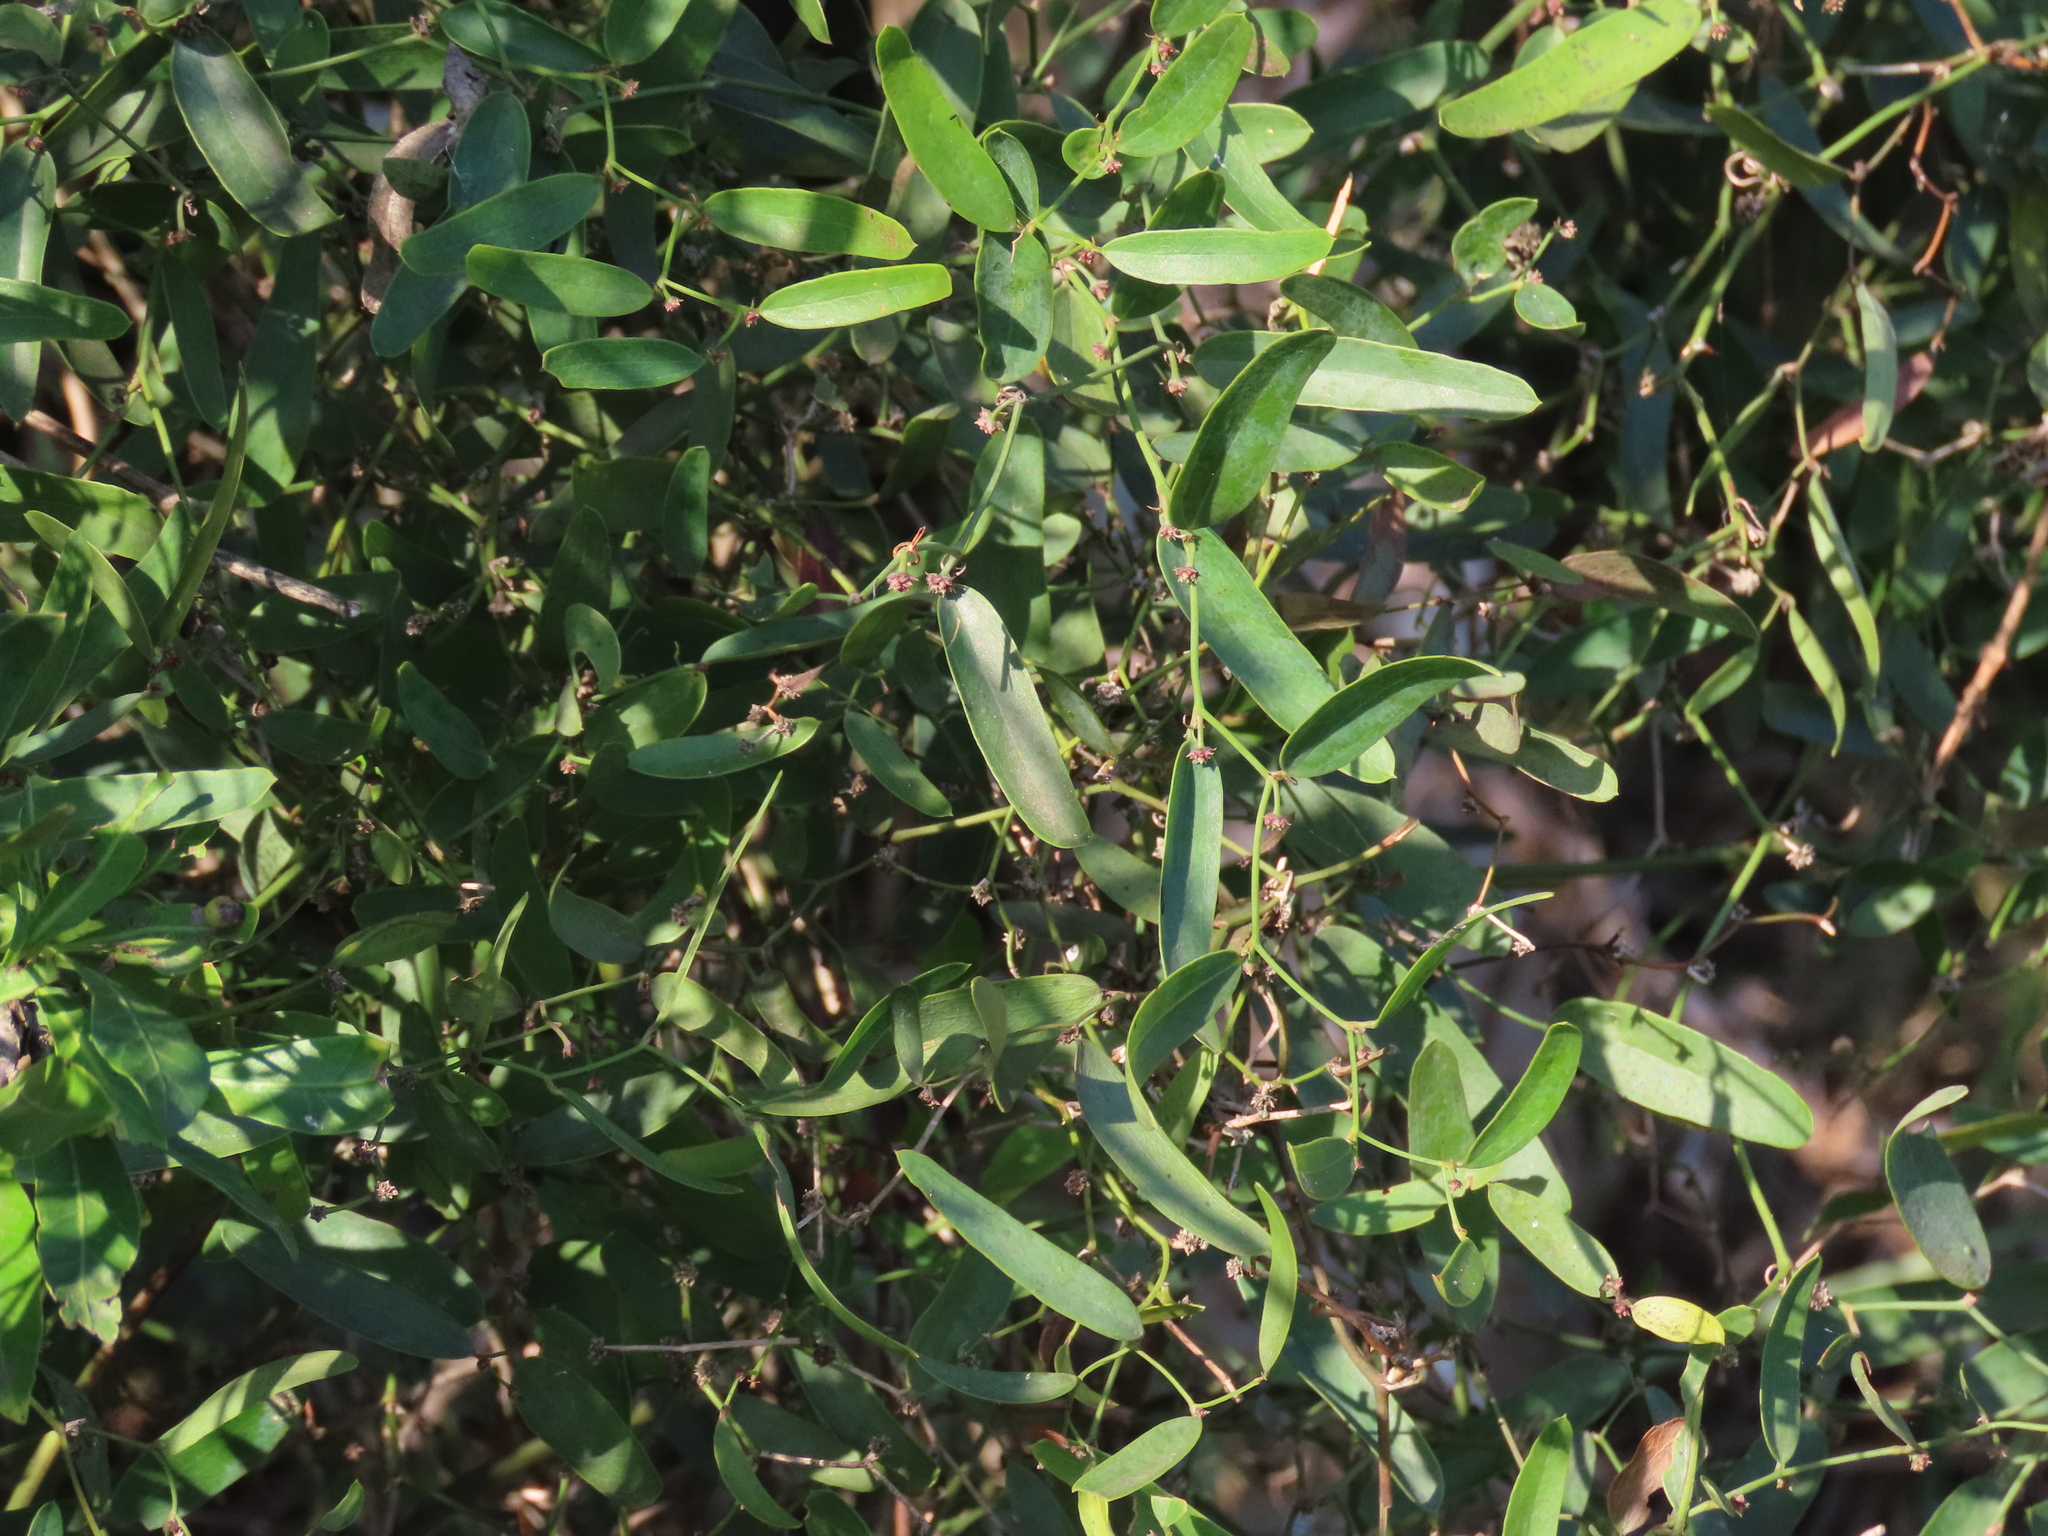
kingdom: Plantae
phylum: Tracheophyta
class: Liliopsida
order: Liliales
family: Smilacaceae
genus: Smilax
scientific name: Smilax campestris
